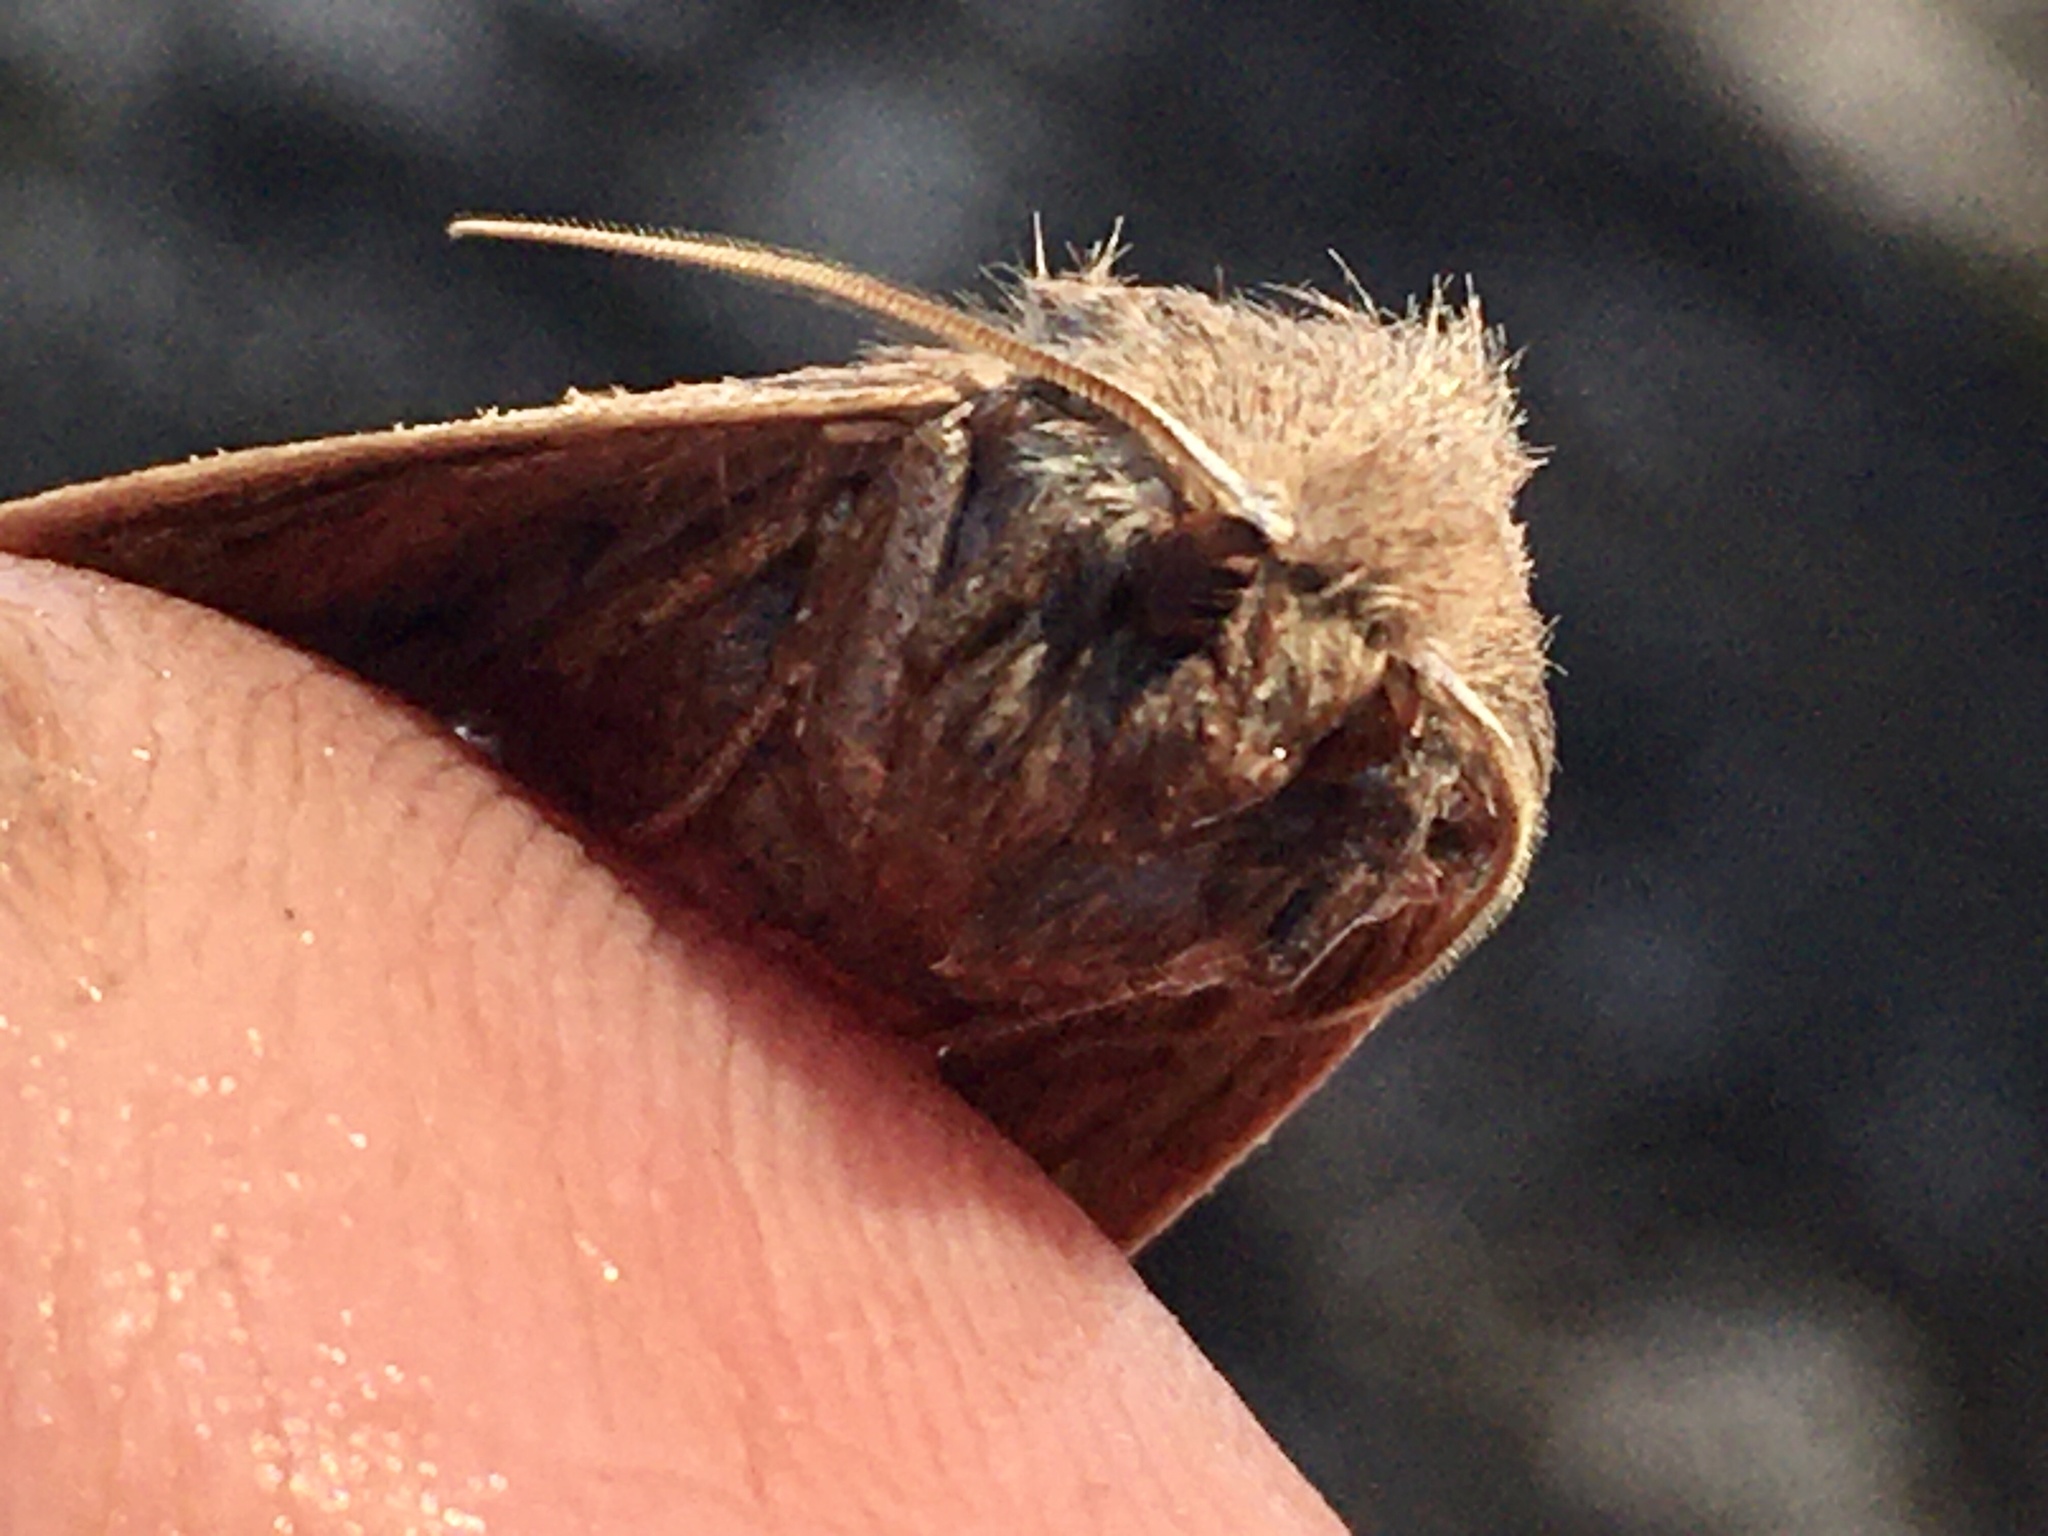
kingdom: Animalia
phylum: Arthropoda
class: Insecta
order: Lepidoptera
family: Noctuidae
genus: Eupsilia
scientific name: Eupsilia morrisoni
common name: Morrison's sallow
